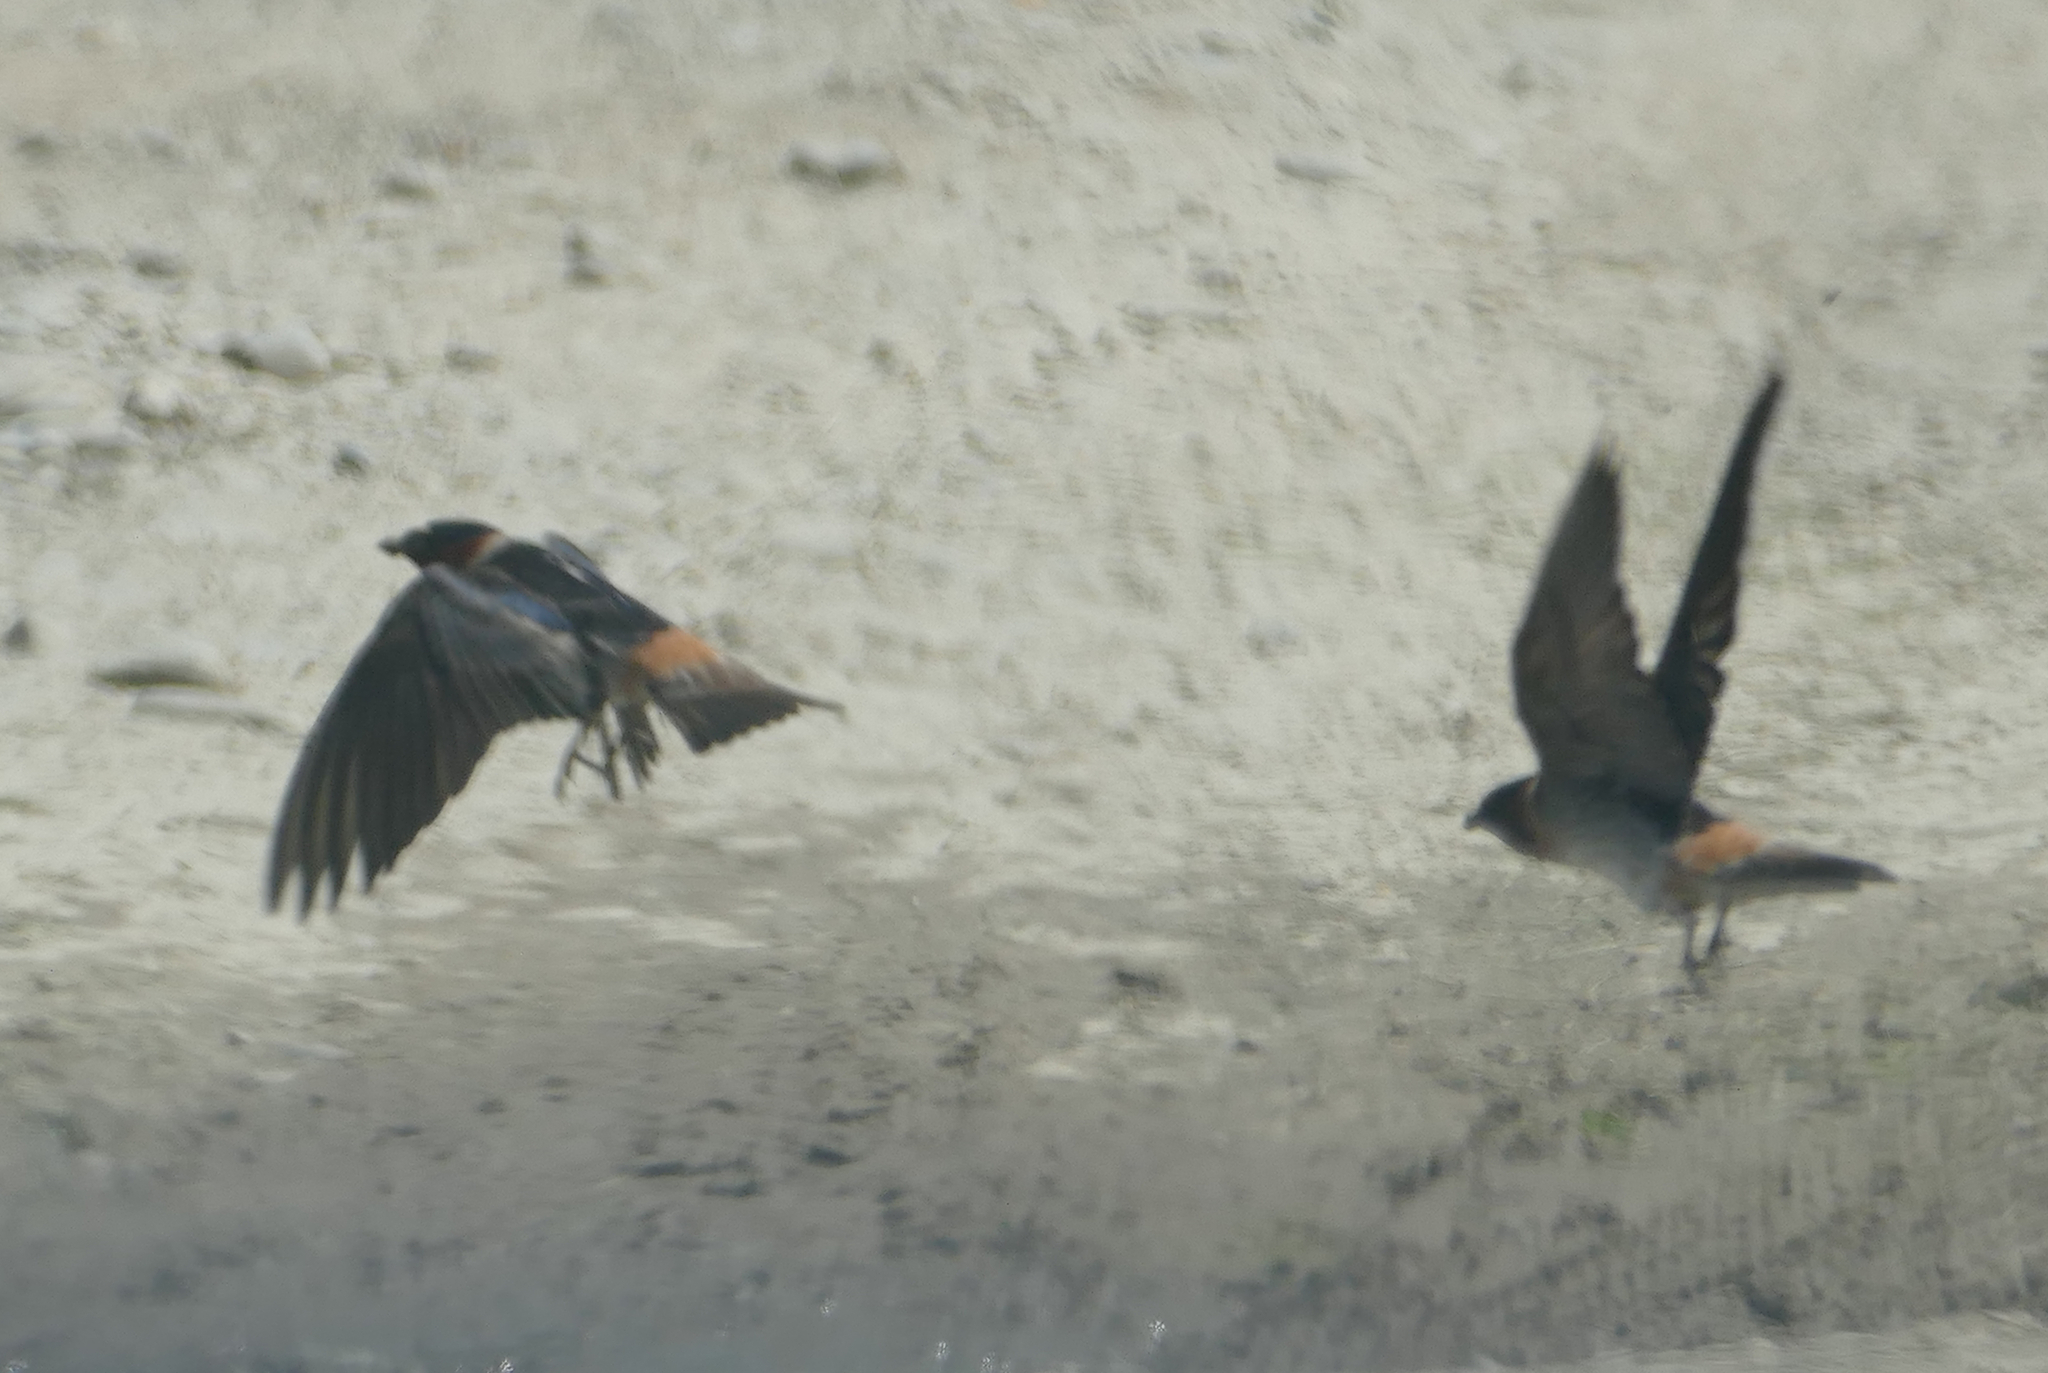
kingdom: Animalia
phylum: Chordata
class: Aves
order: Passeriformes
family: Hirundinidae
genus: Petrochelidon
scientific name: Petrochelidon pyrrhonota
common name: American cliff swallow
